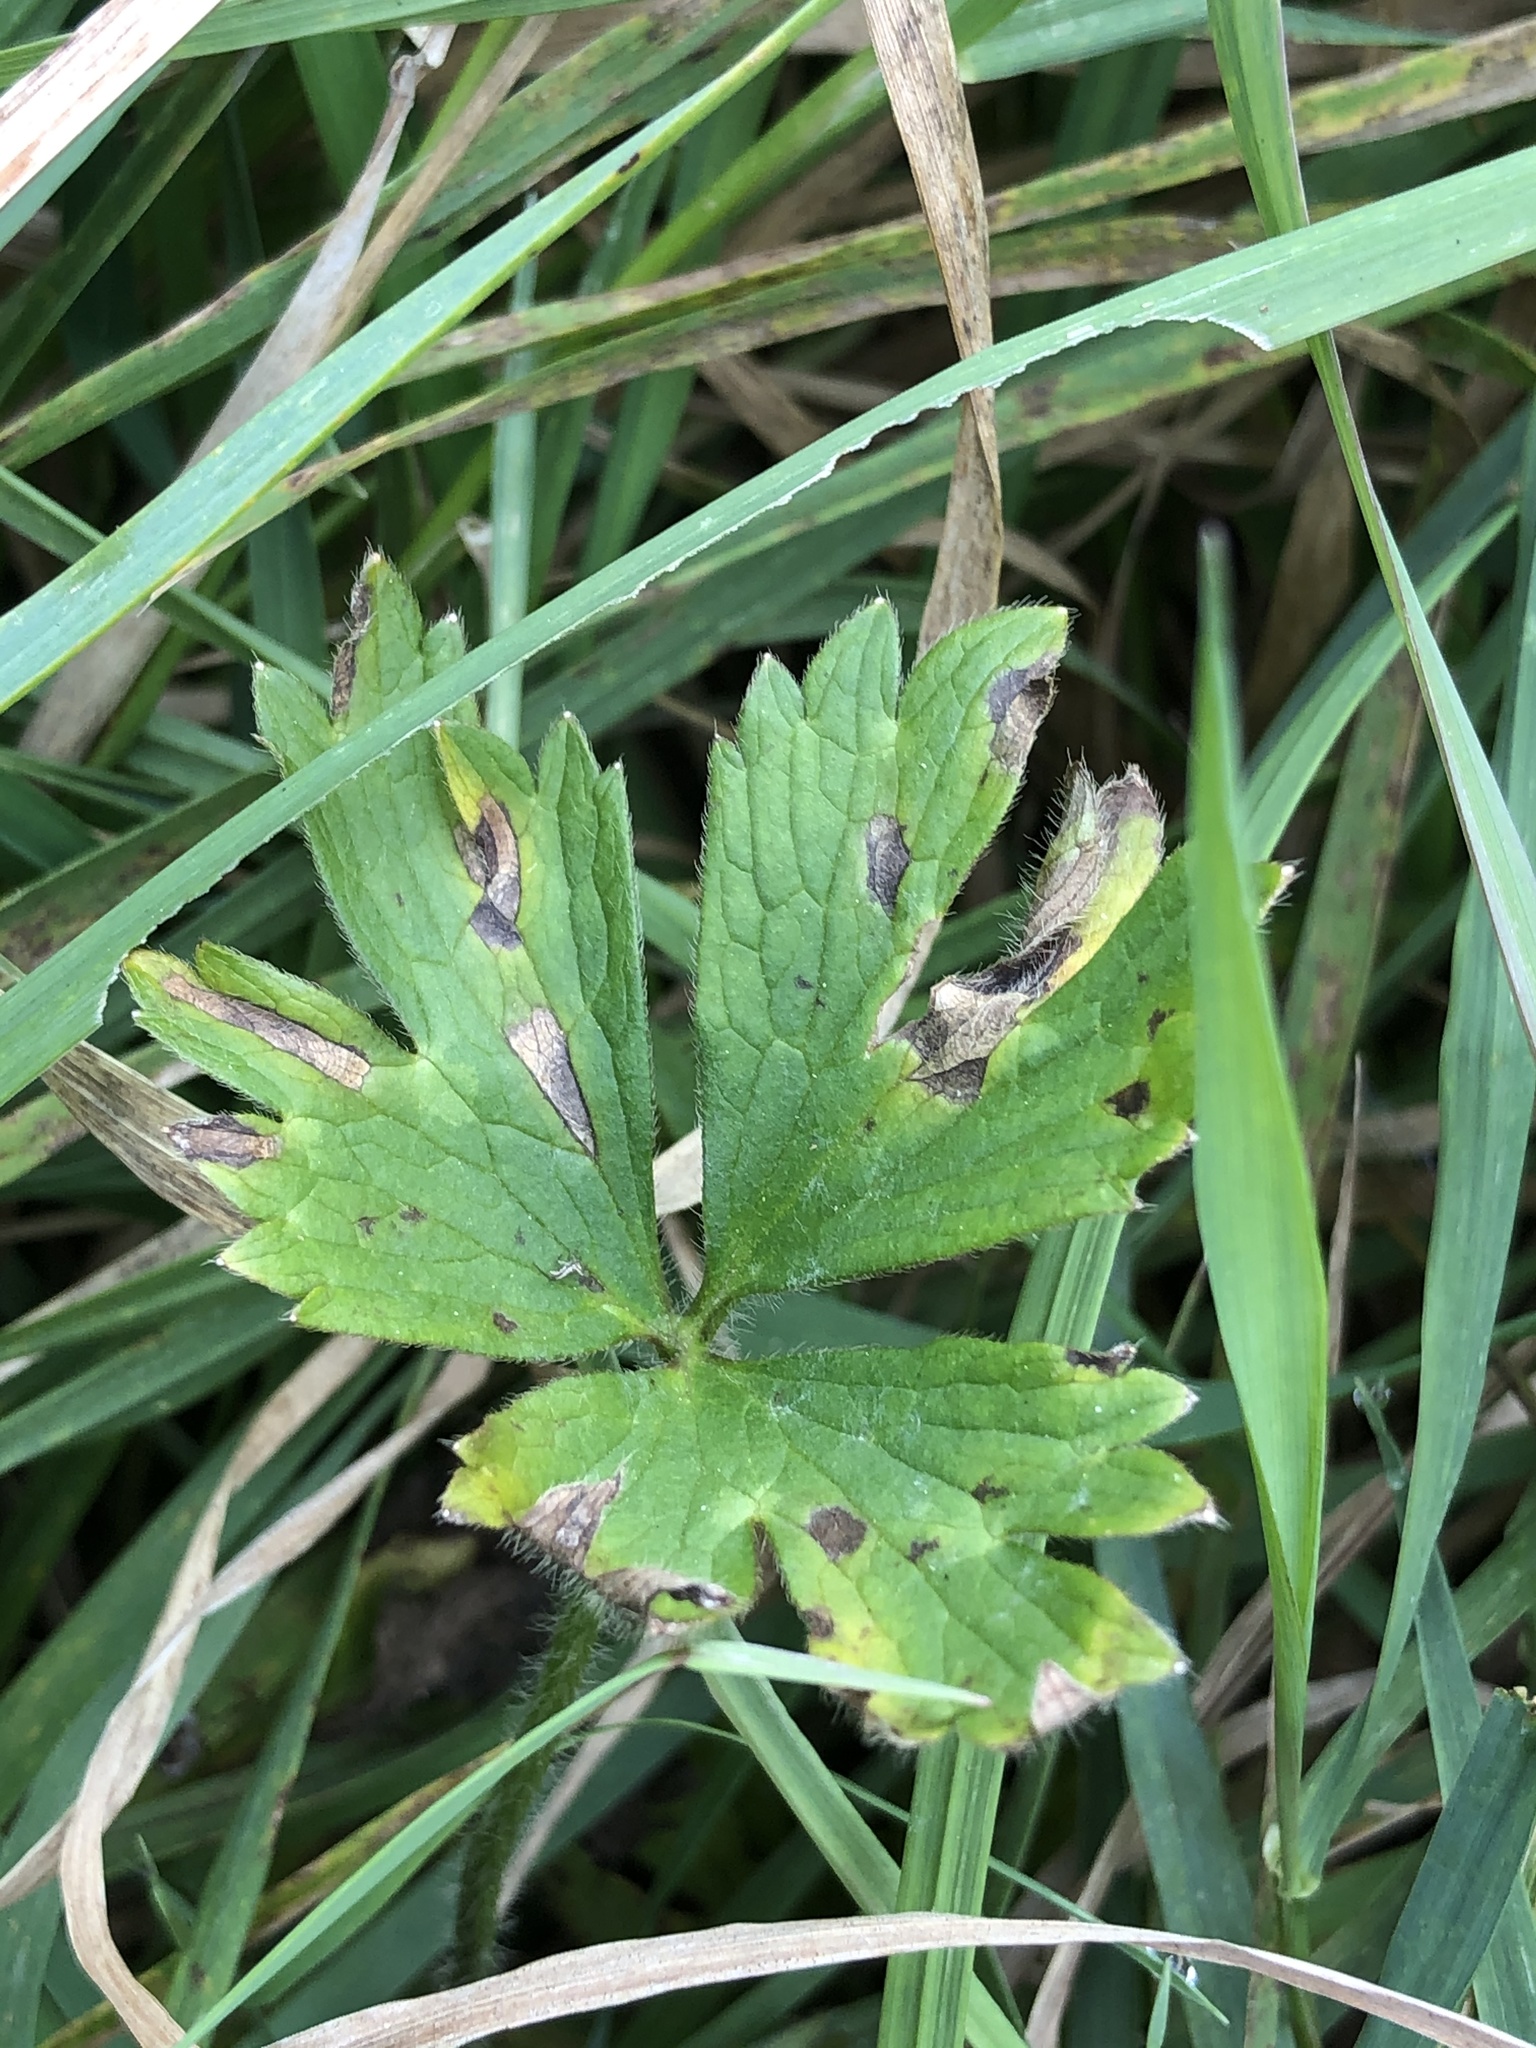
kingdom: Plantae
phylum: Tracheophyta
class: Magnoliopsida
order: Ranunculales
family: Ranunculaceae
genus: Ranunculus
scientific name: Ranunculus repens
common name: Creeping buttercup
